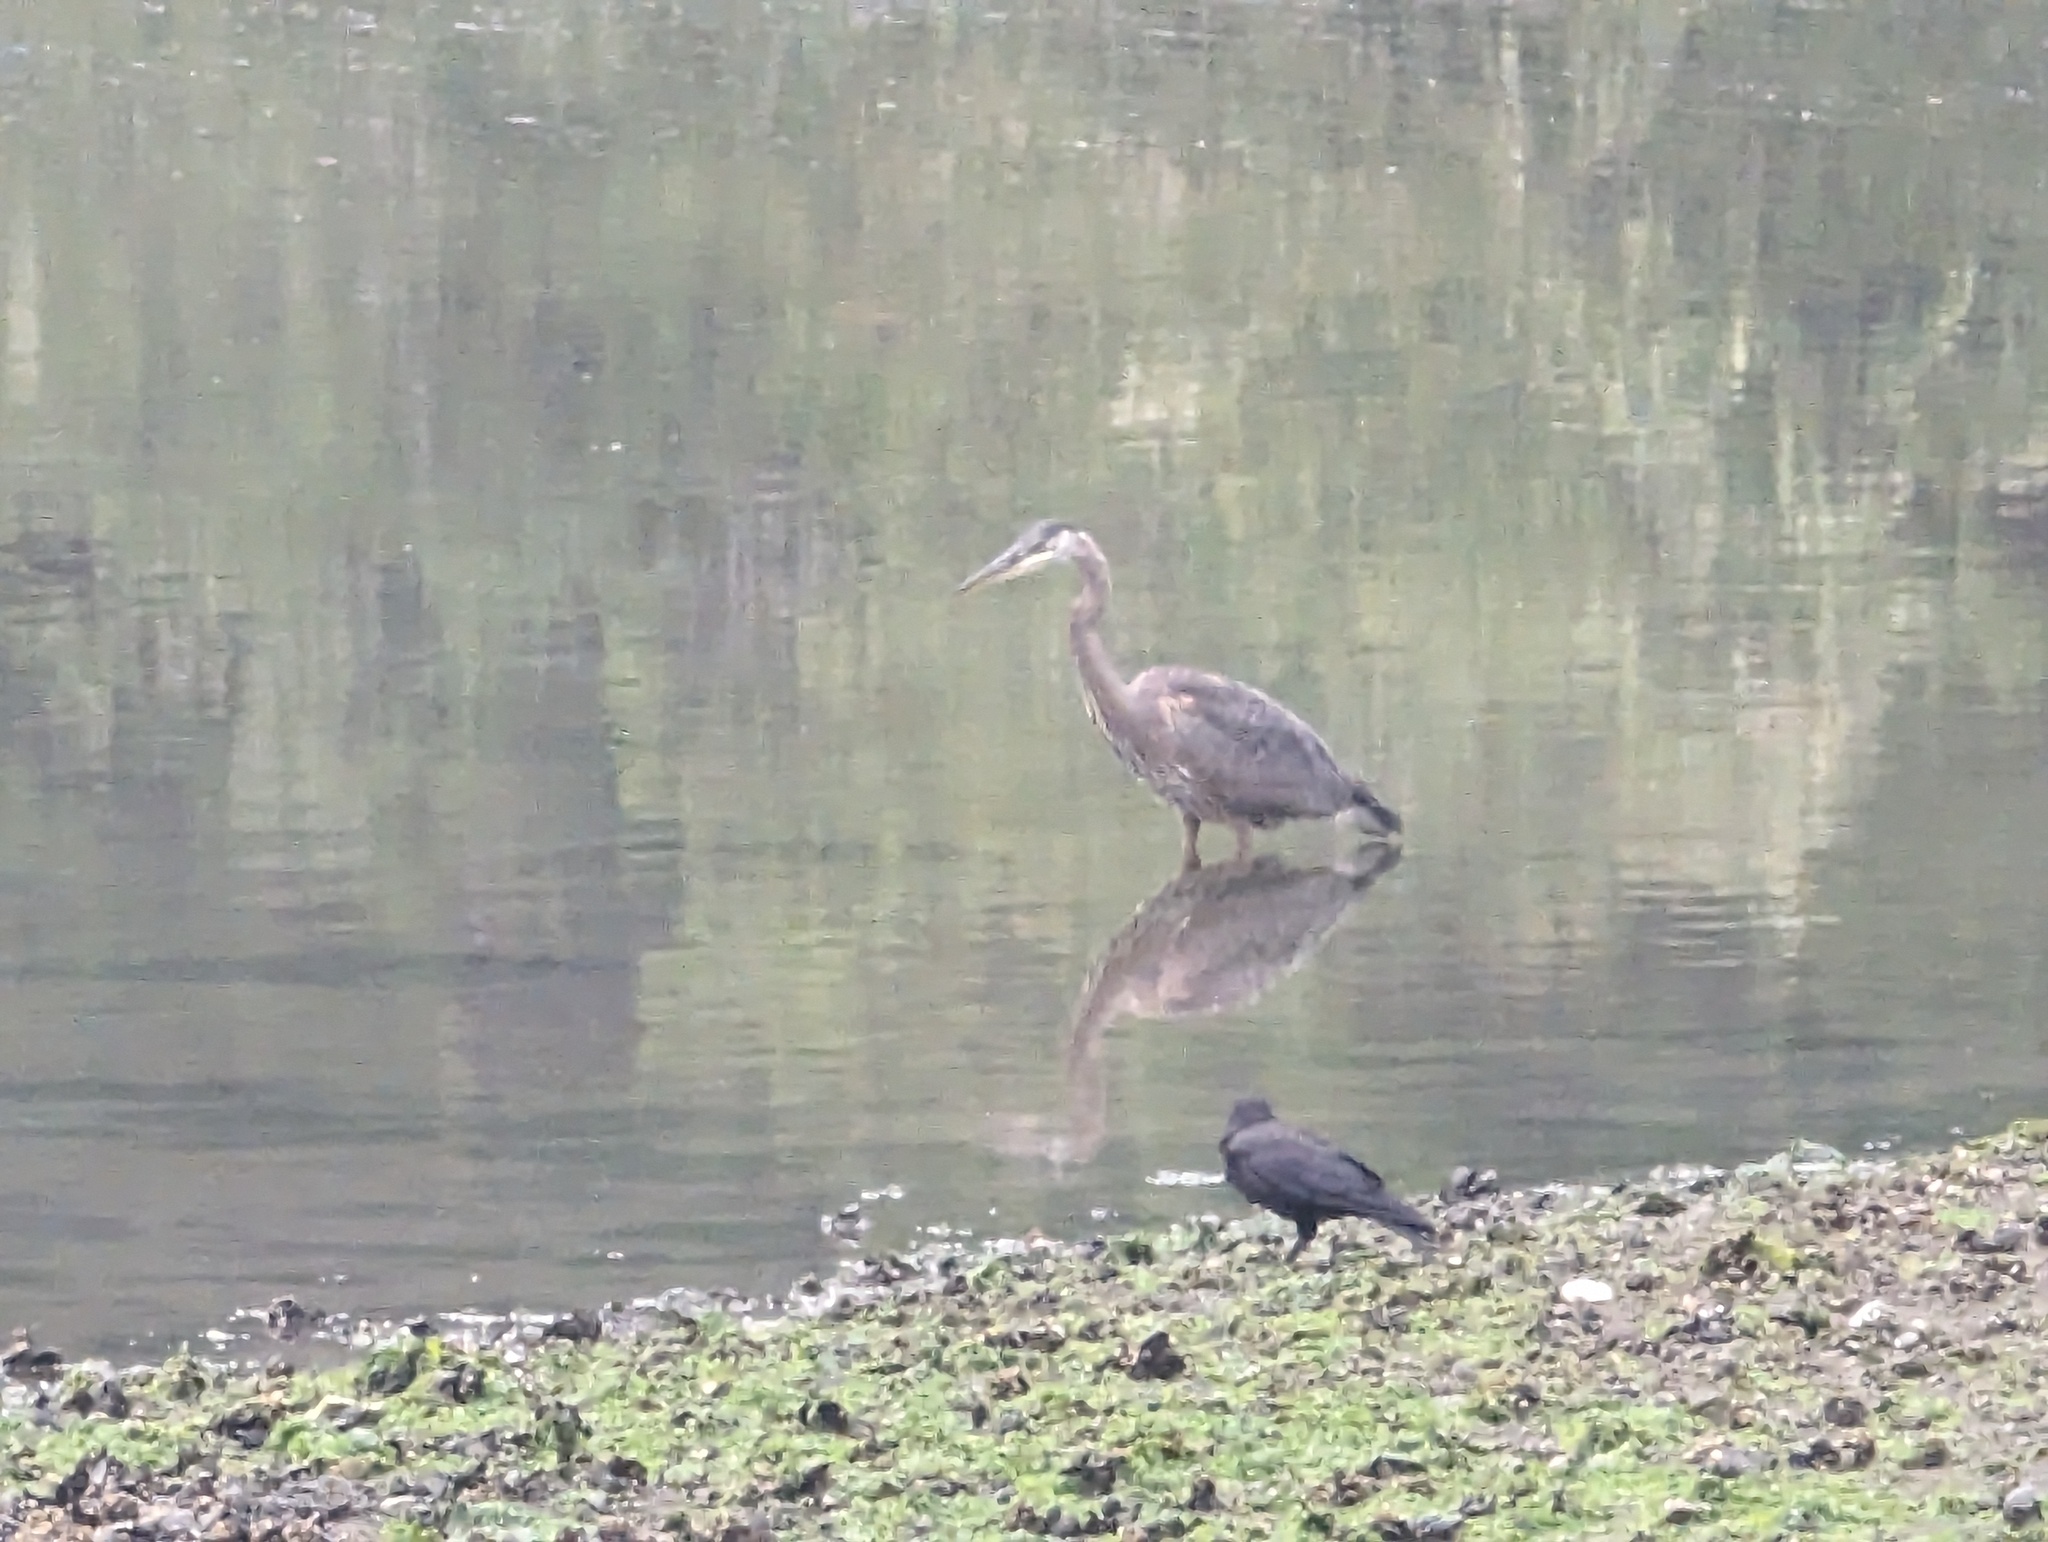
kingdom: Animalia
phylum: Chordata
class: Aves
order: Passeriformes
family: Corvidae
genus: Corvus
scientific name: Corvus brachyrhynchos
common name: American crow
